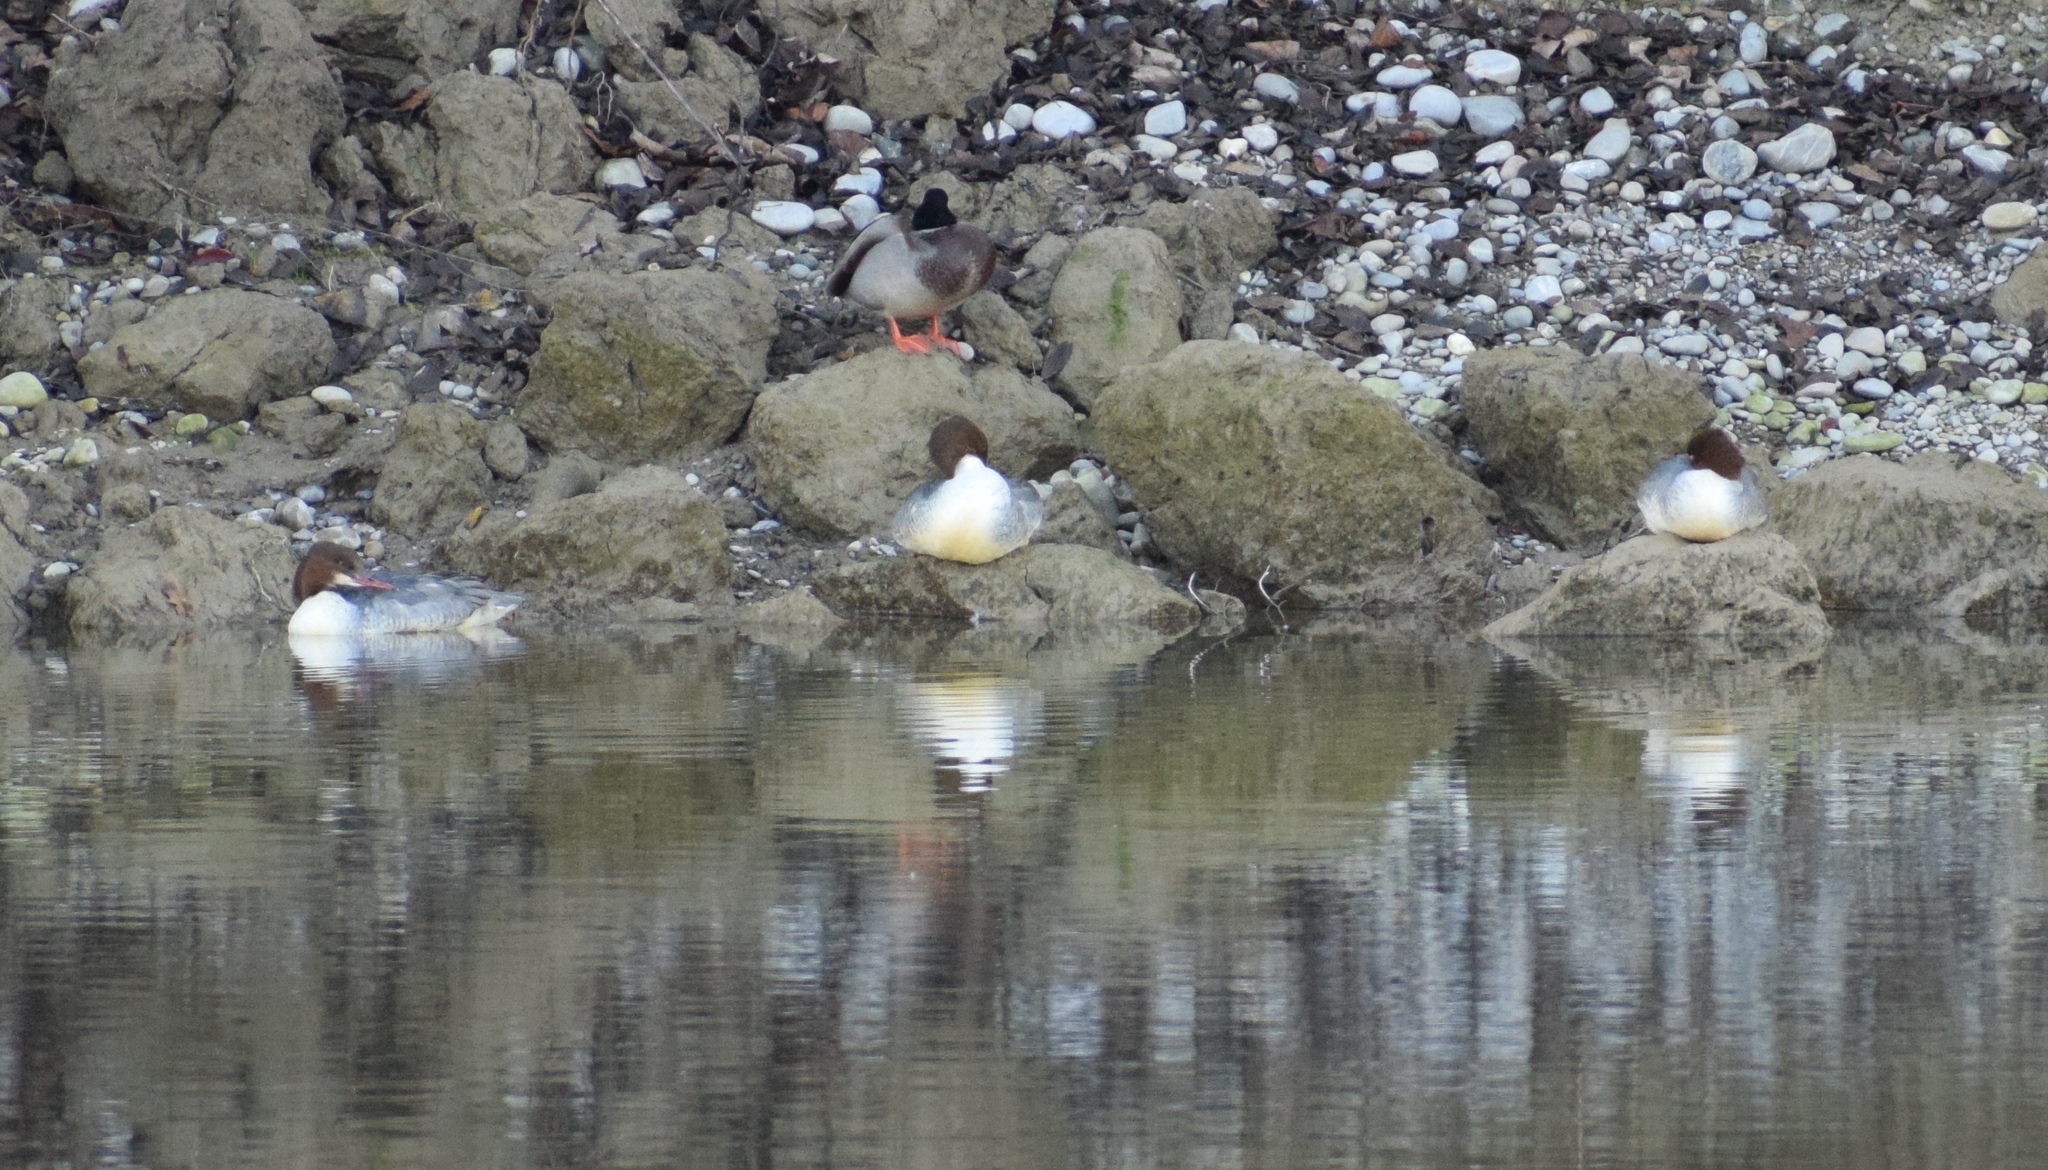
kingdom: Animalia
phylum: Chordata
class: Aves
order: Anseriformes
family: Anatidae
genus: Mergus
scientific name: Mergus merganser
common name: Common merganser
